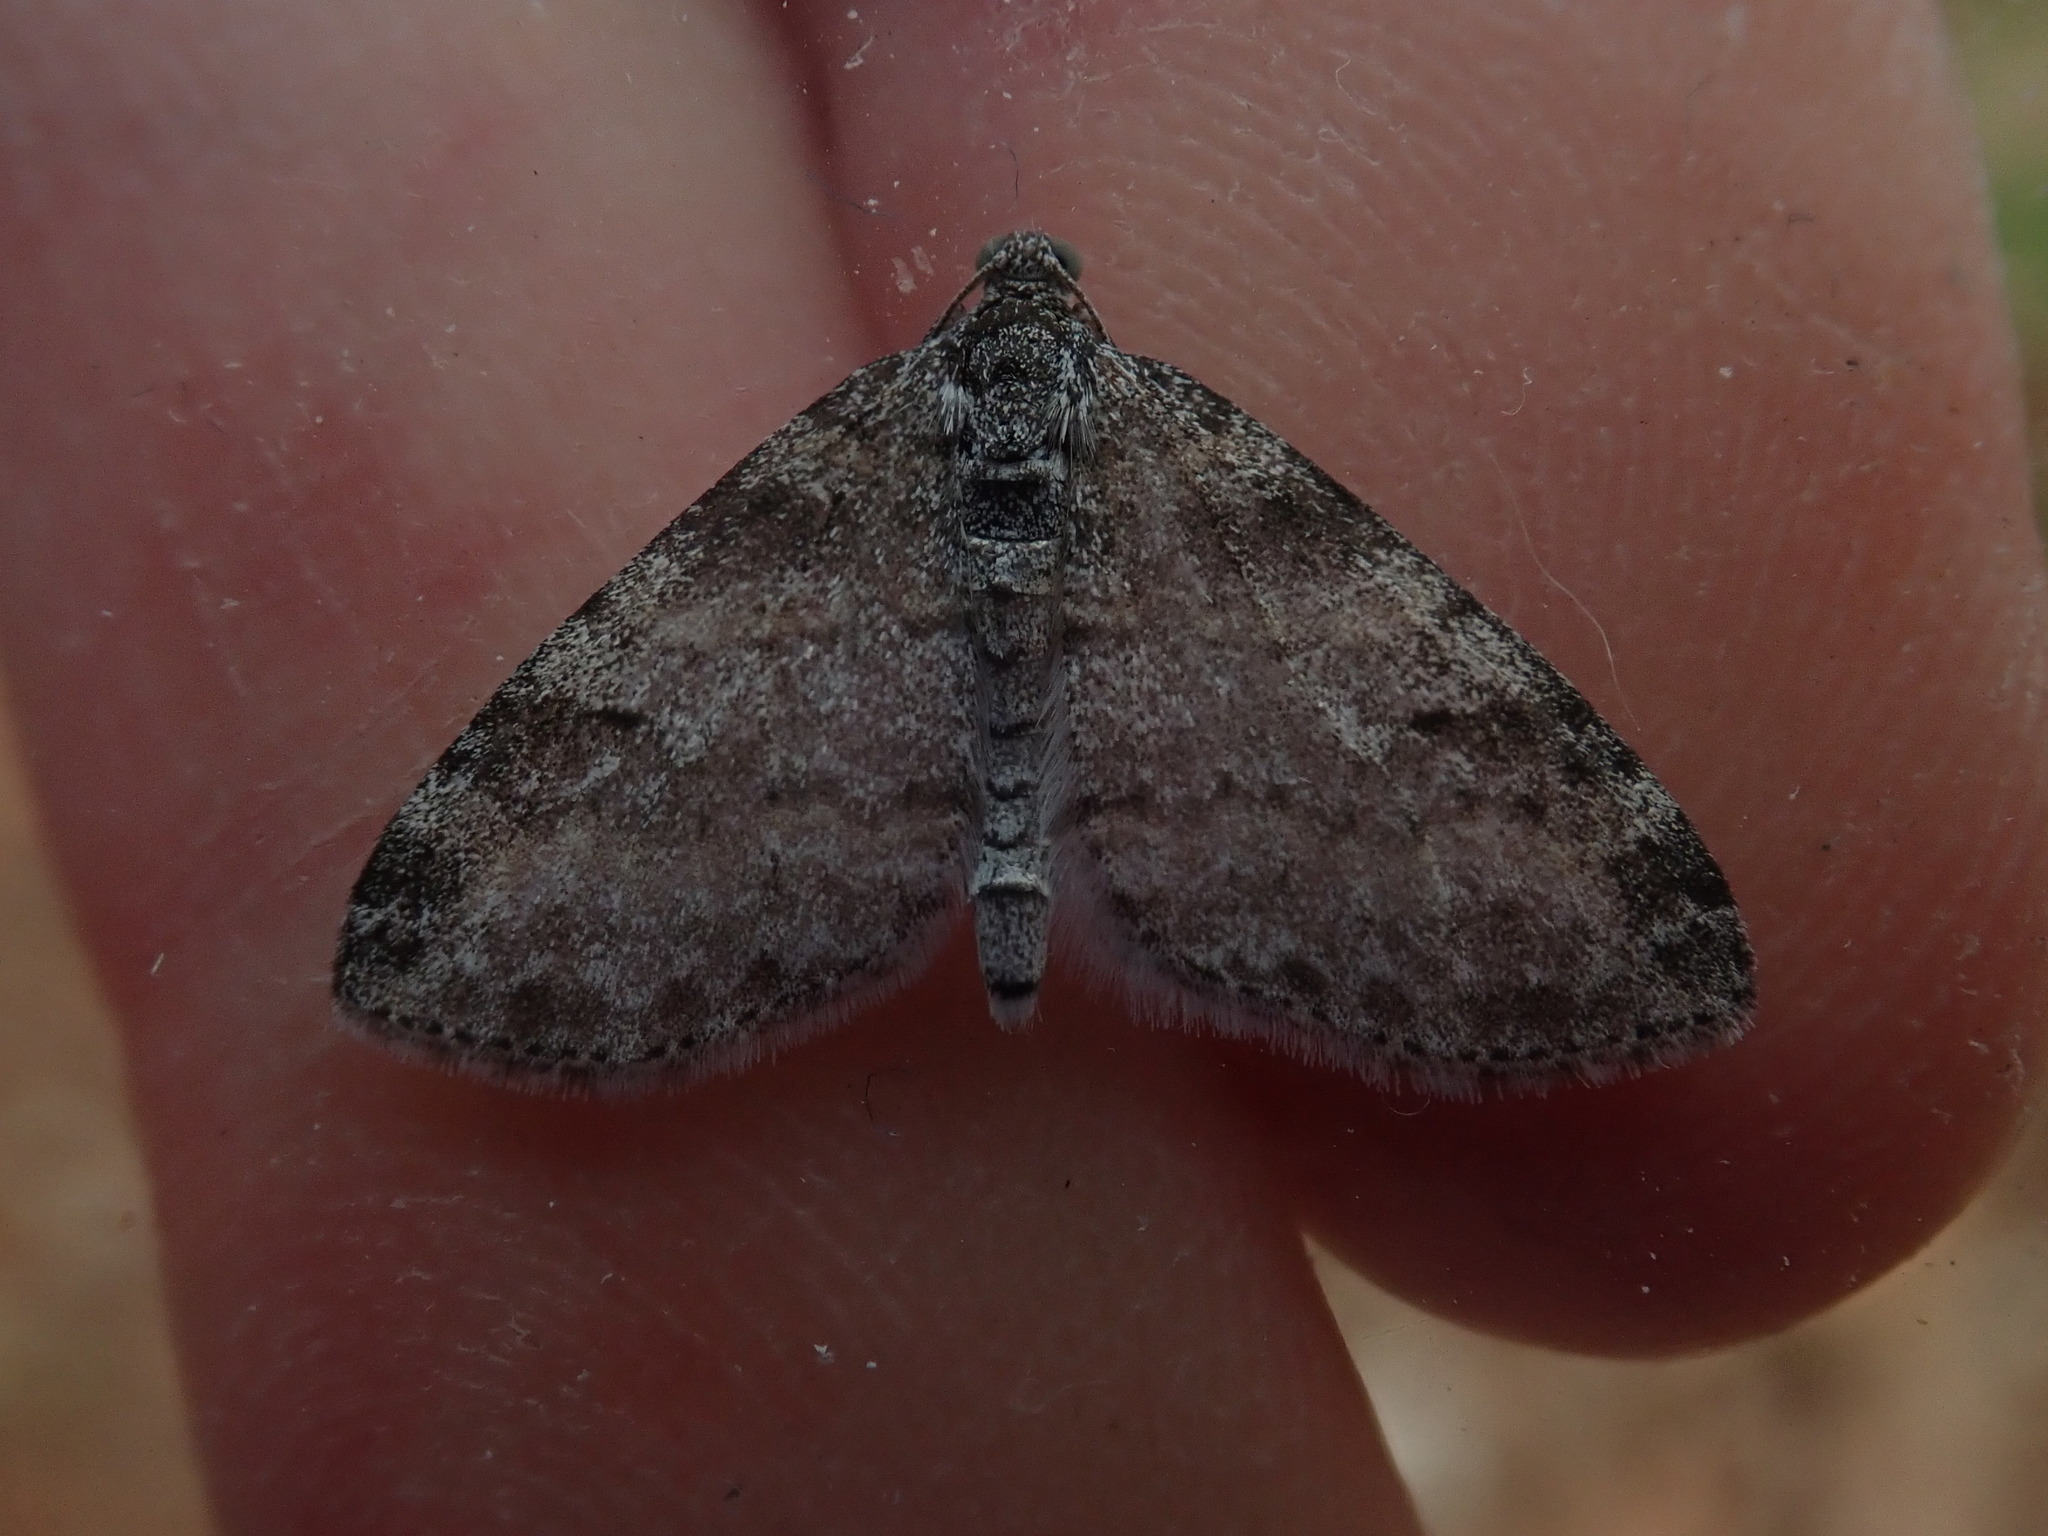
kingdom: Animalia
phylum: Arthropoda
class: Insecta
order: Lepidoptera
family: Geometridae
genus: Lobophora
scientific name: Lobophora nivigerata
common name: Powdered bigwing
